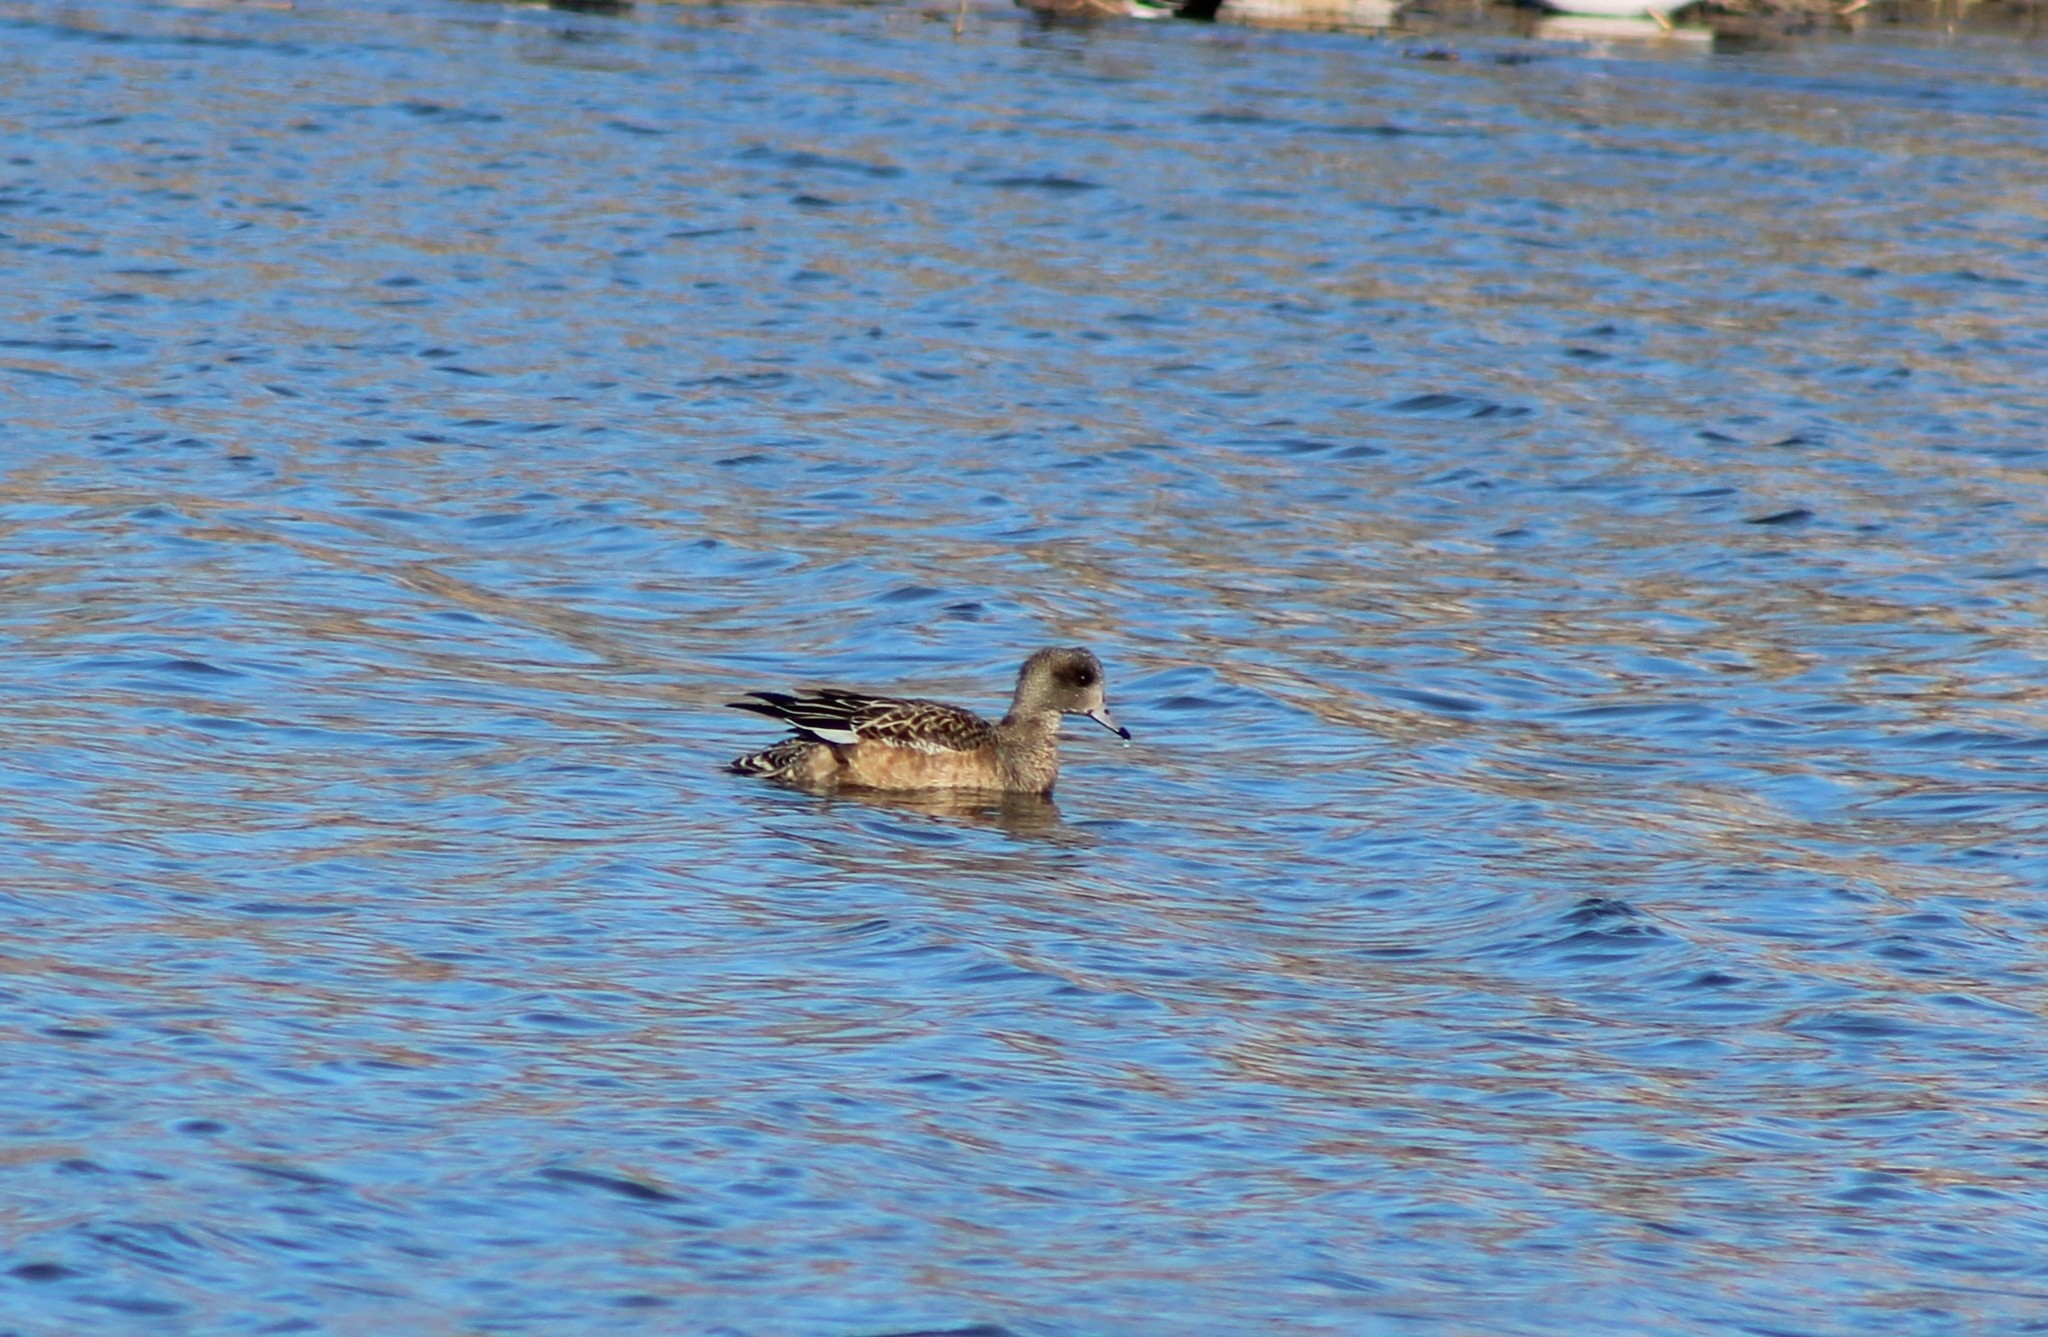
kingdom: Animalia
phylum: Chordata
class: Aves
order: Anseriformes
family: Anatidae
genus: Mareca
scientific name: Mareca americana
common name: American wigeon
